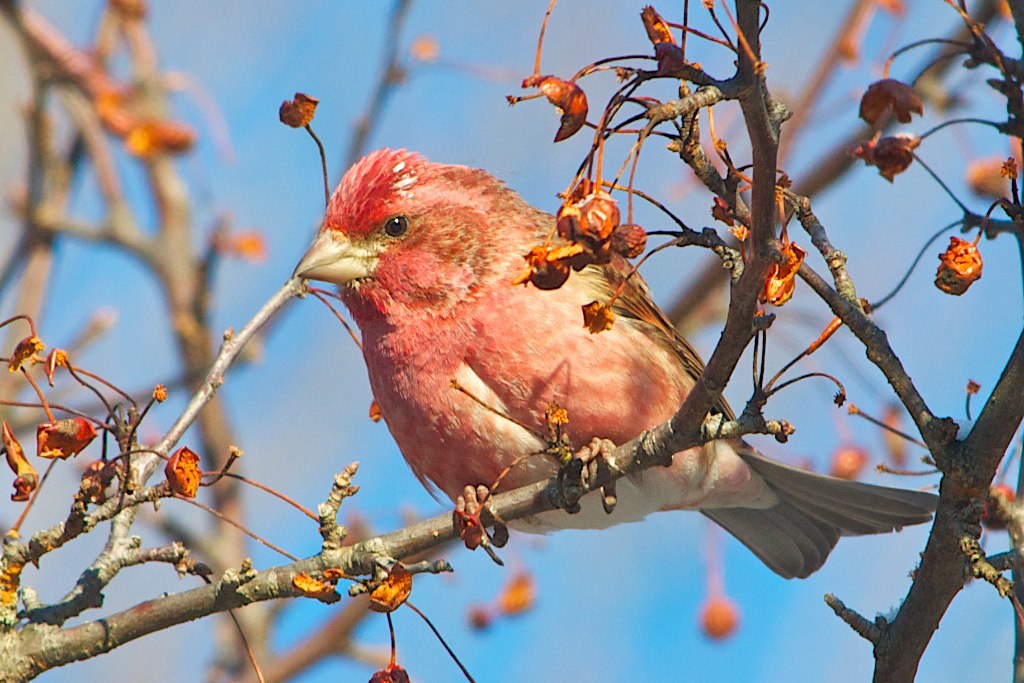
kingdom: Animalia
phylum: Chordata
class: Aves
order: Passeriformes
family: Fringillidae
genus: Haemorhous
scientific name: Haemorhous purpureus
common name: Purple finch
